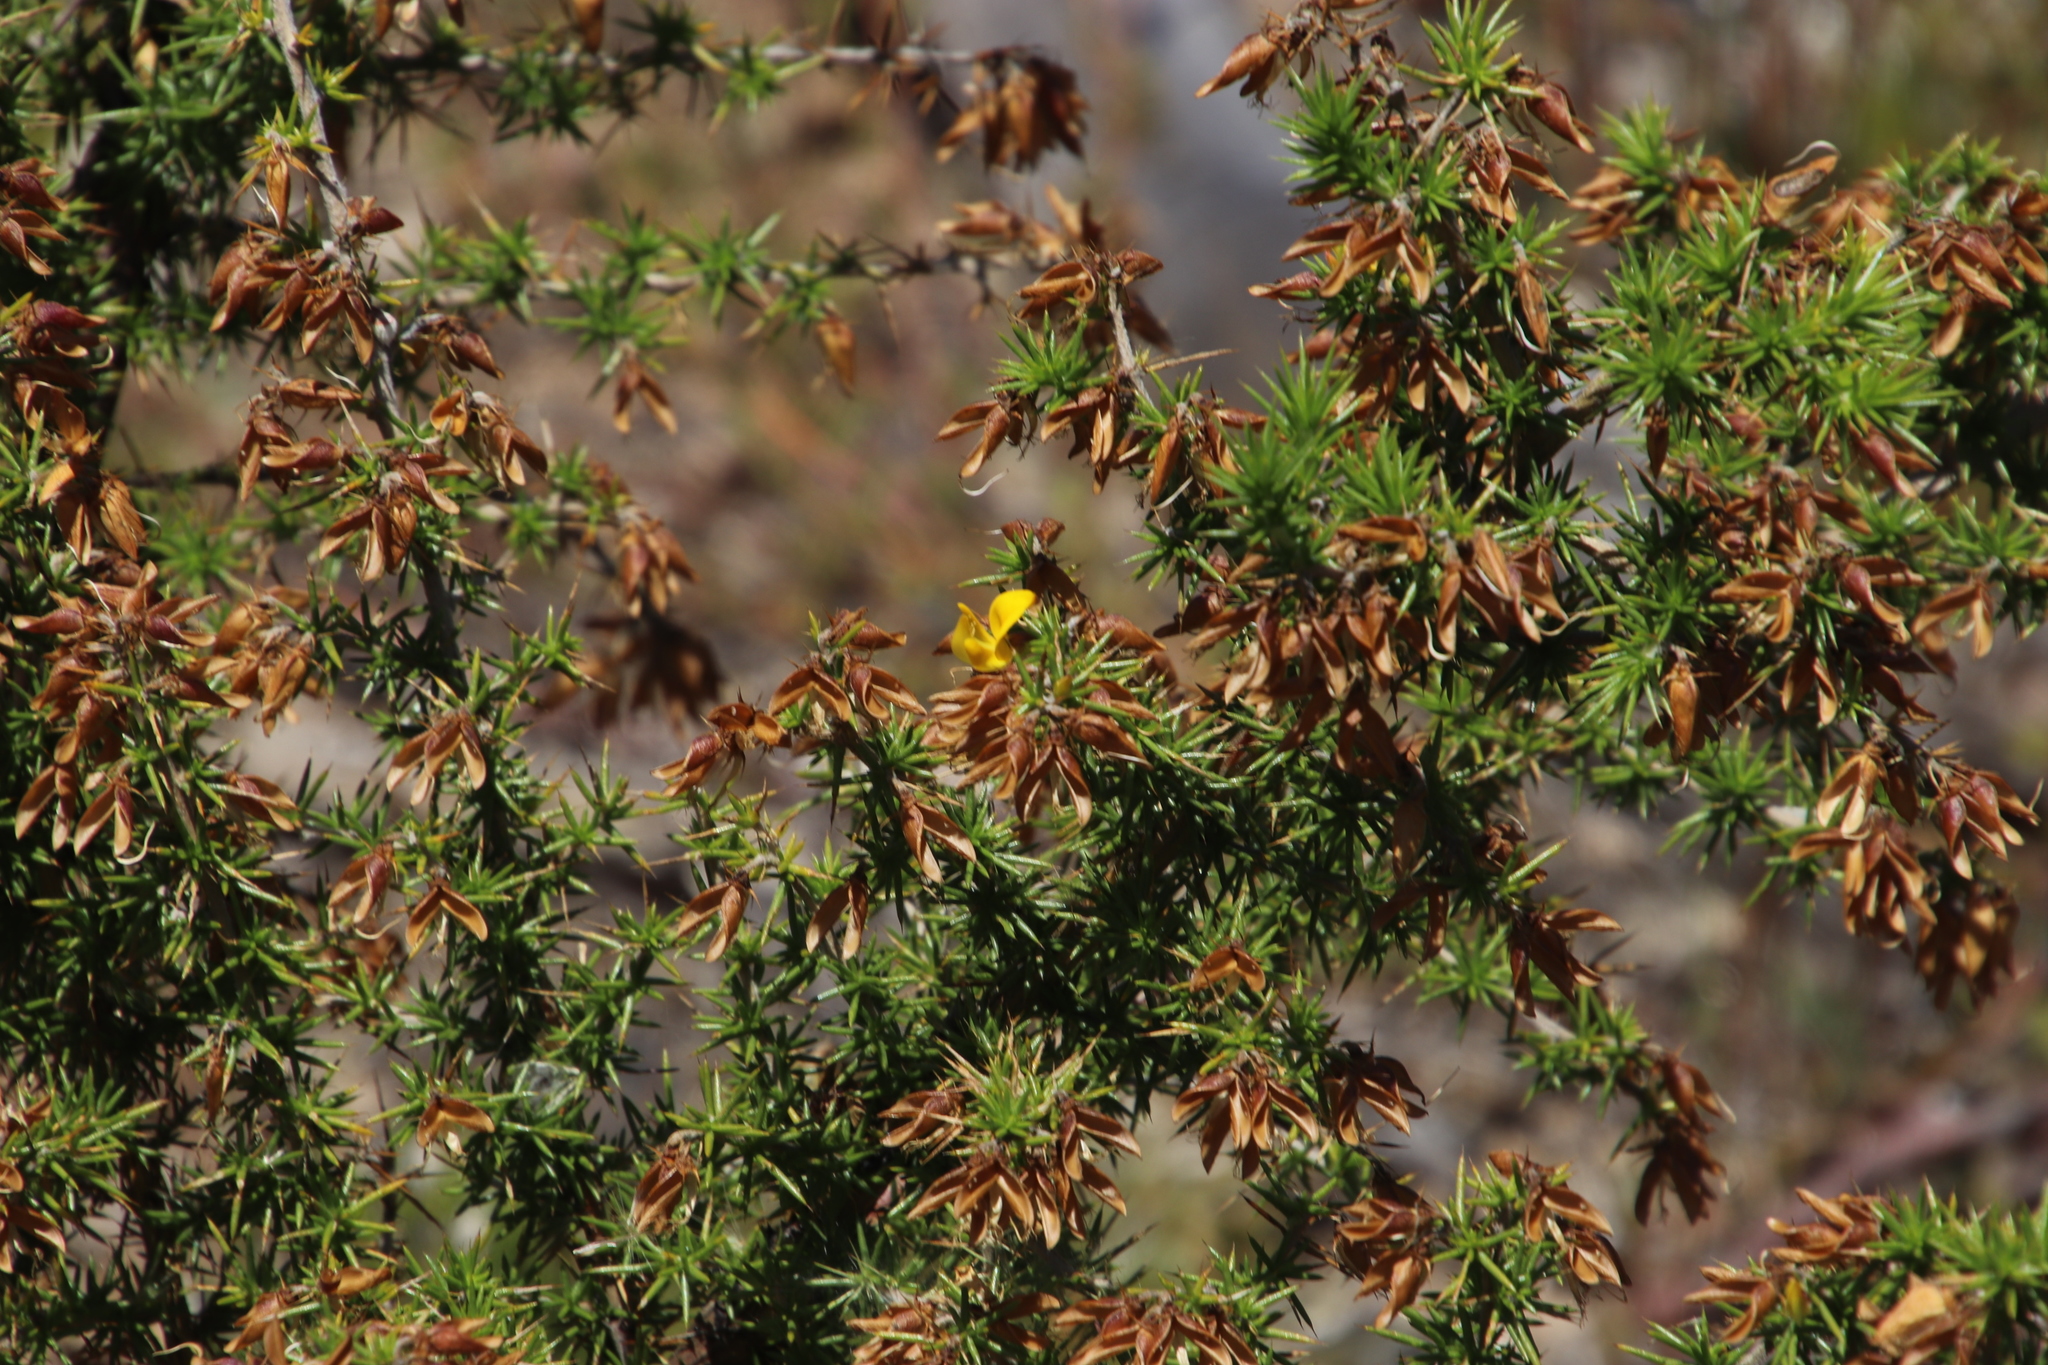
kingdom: Plantae
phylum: Tracheophyta
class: Magnoliopsida
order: Fabales
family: Fabaceae
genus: Aspalathus
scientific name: Aspalathus divaricata
